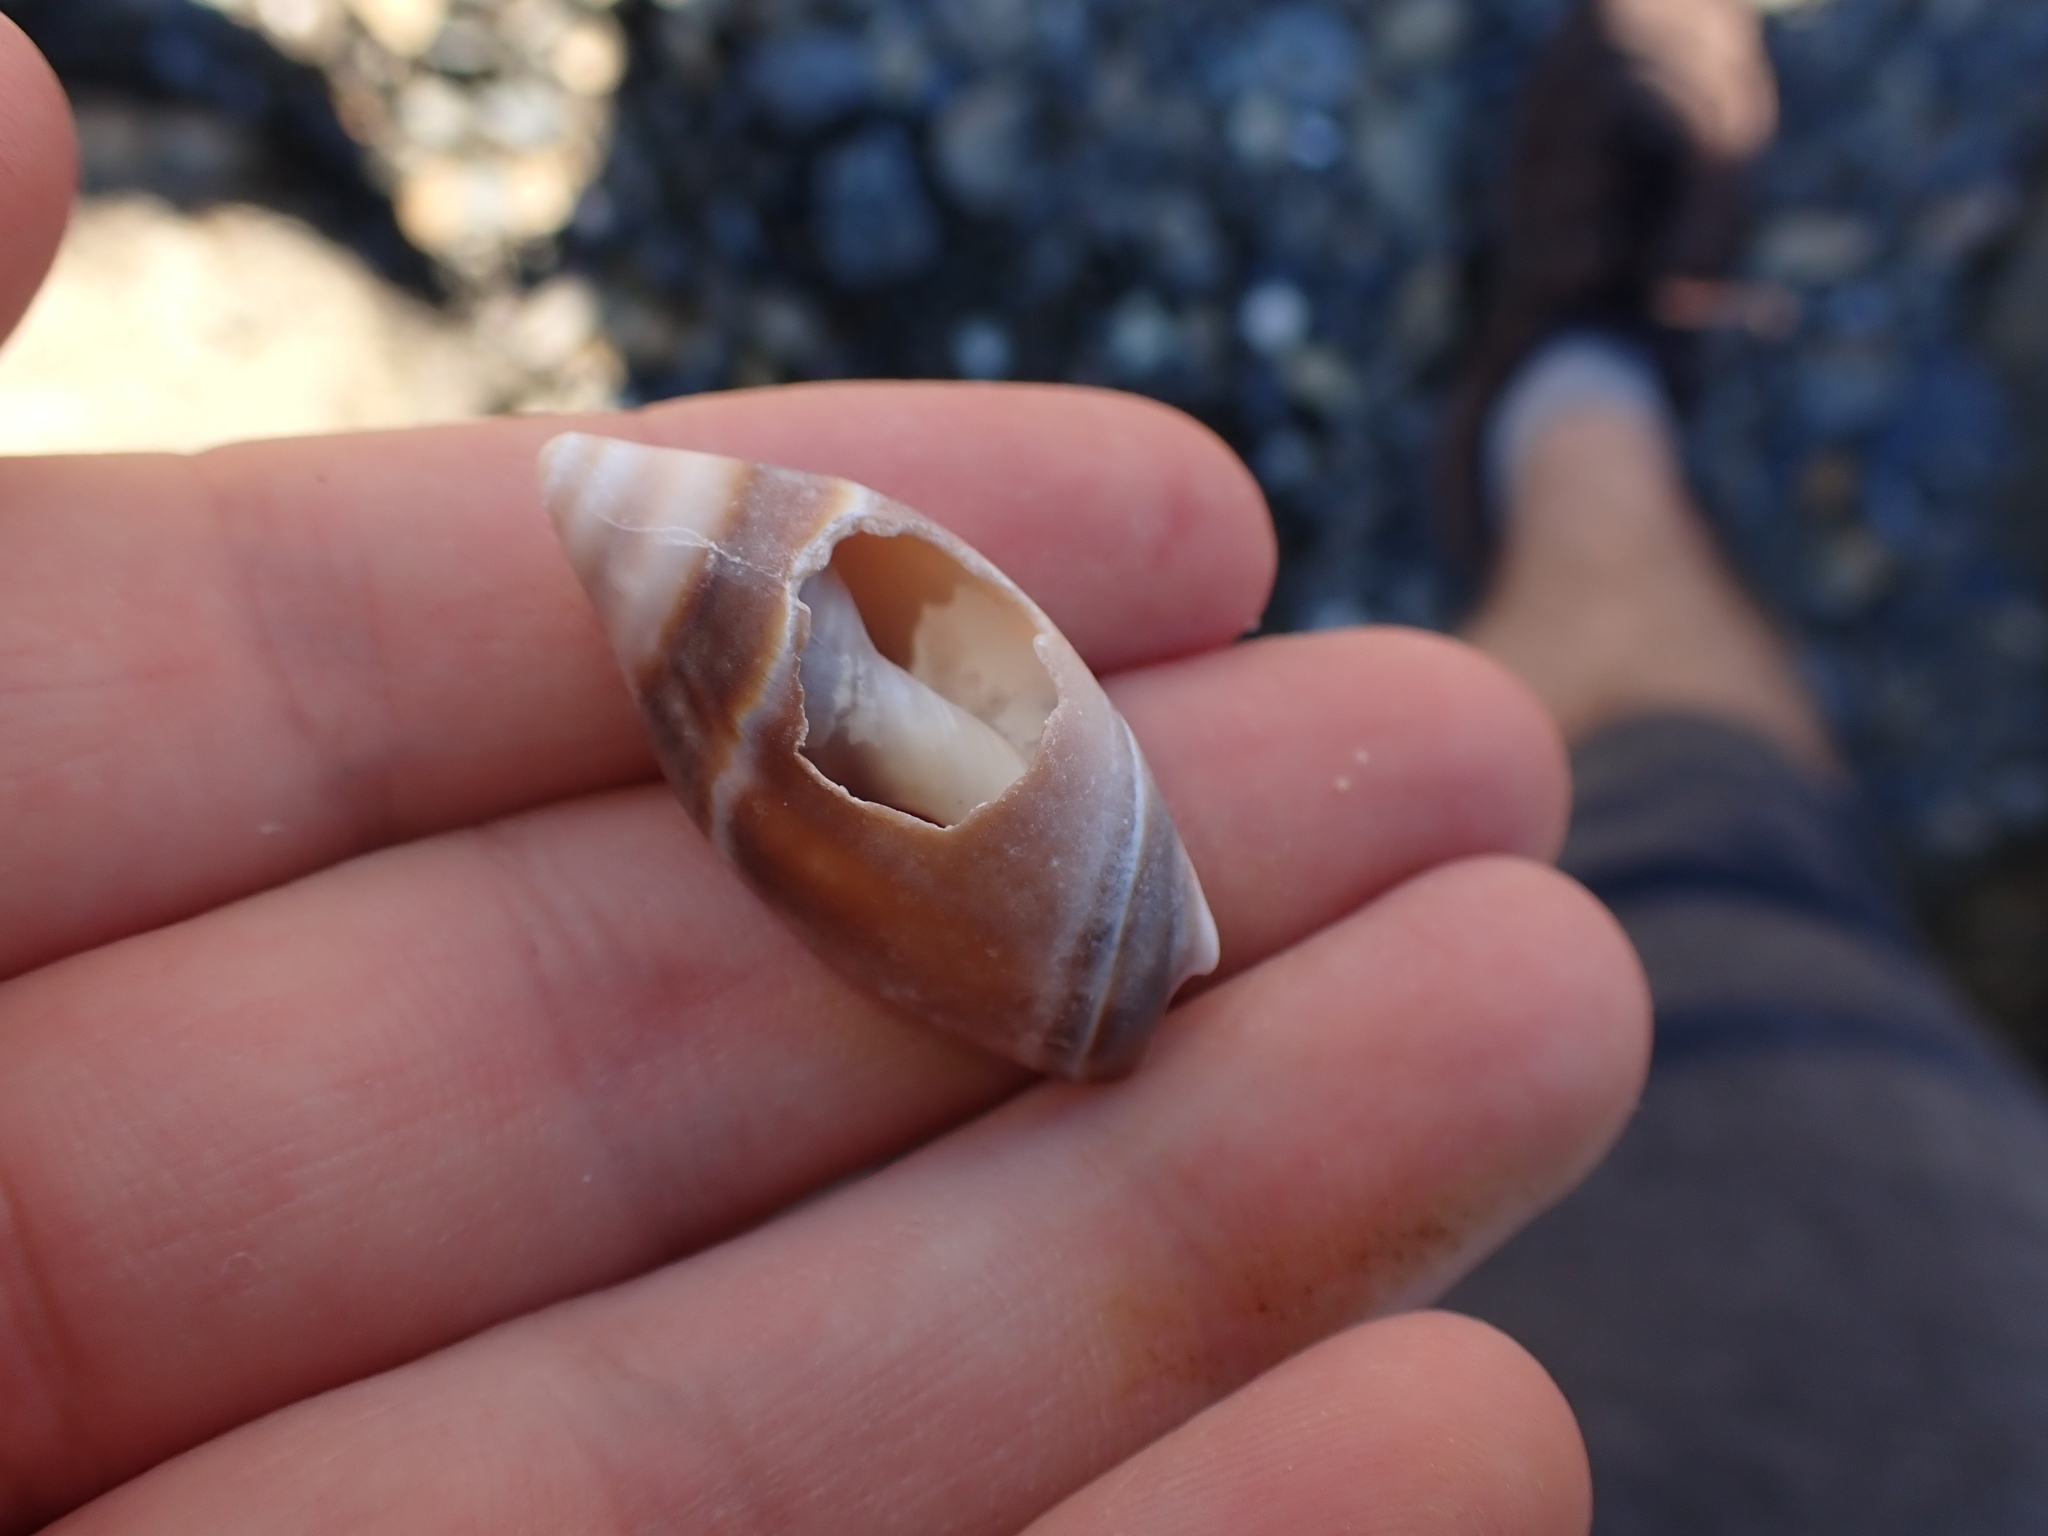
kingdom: Animalia
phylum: Mollusca
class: Gastropoda
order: Neogastropoda
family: Ancillariidae
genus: Amalda
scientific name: Amalda australis
